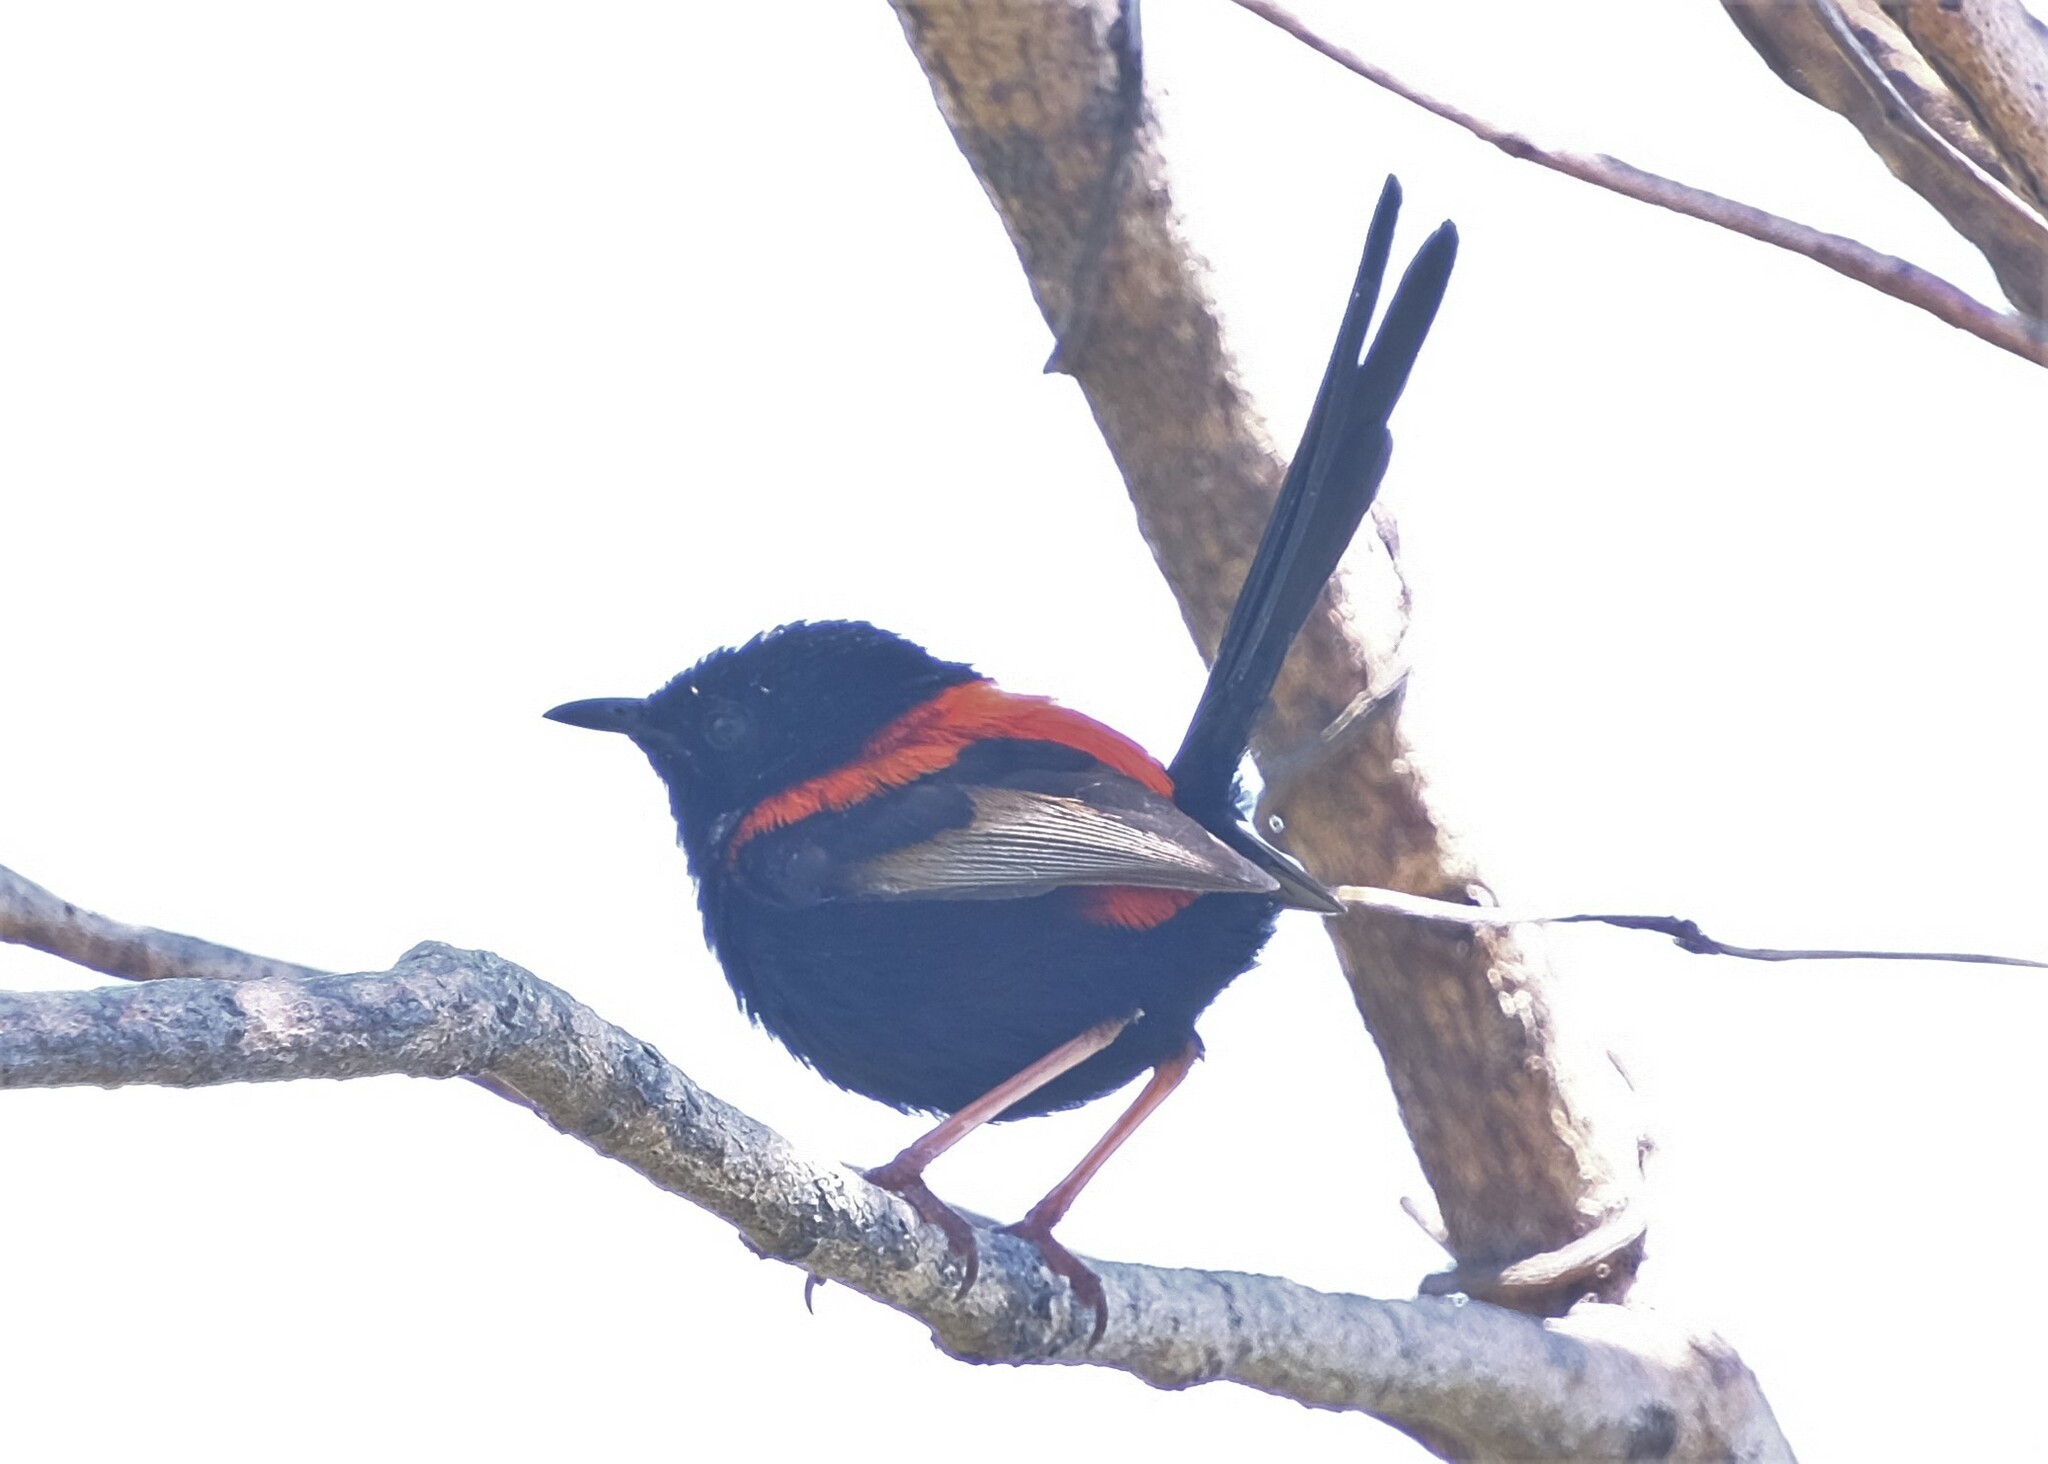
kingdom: Animalia
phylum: Chordata
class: Aves
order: Passeriformes
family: Maluridae
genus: Malurus
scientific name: Malurus melanocephalus
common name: Red-backed fairywren
